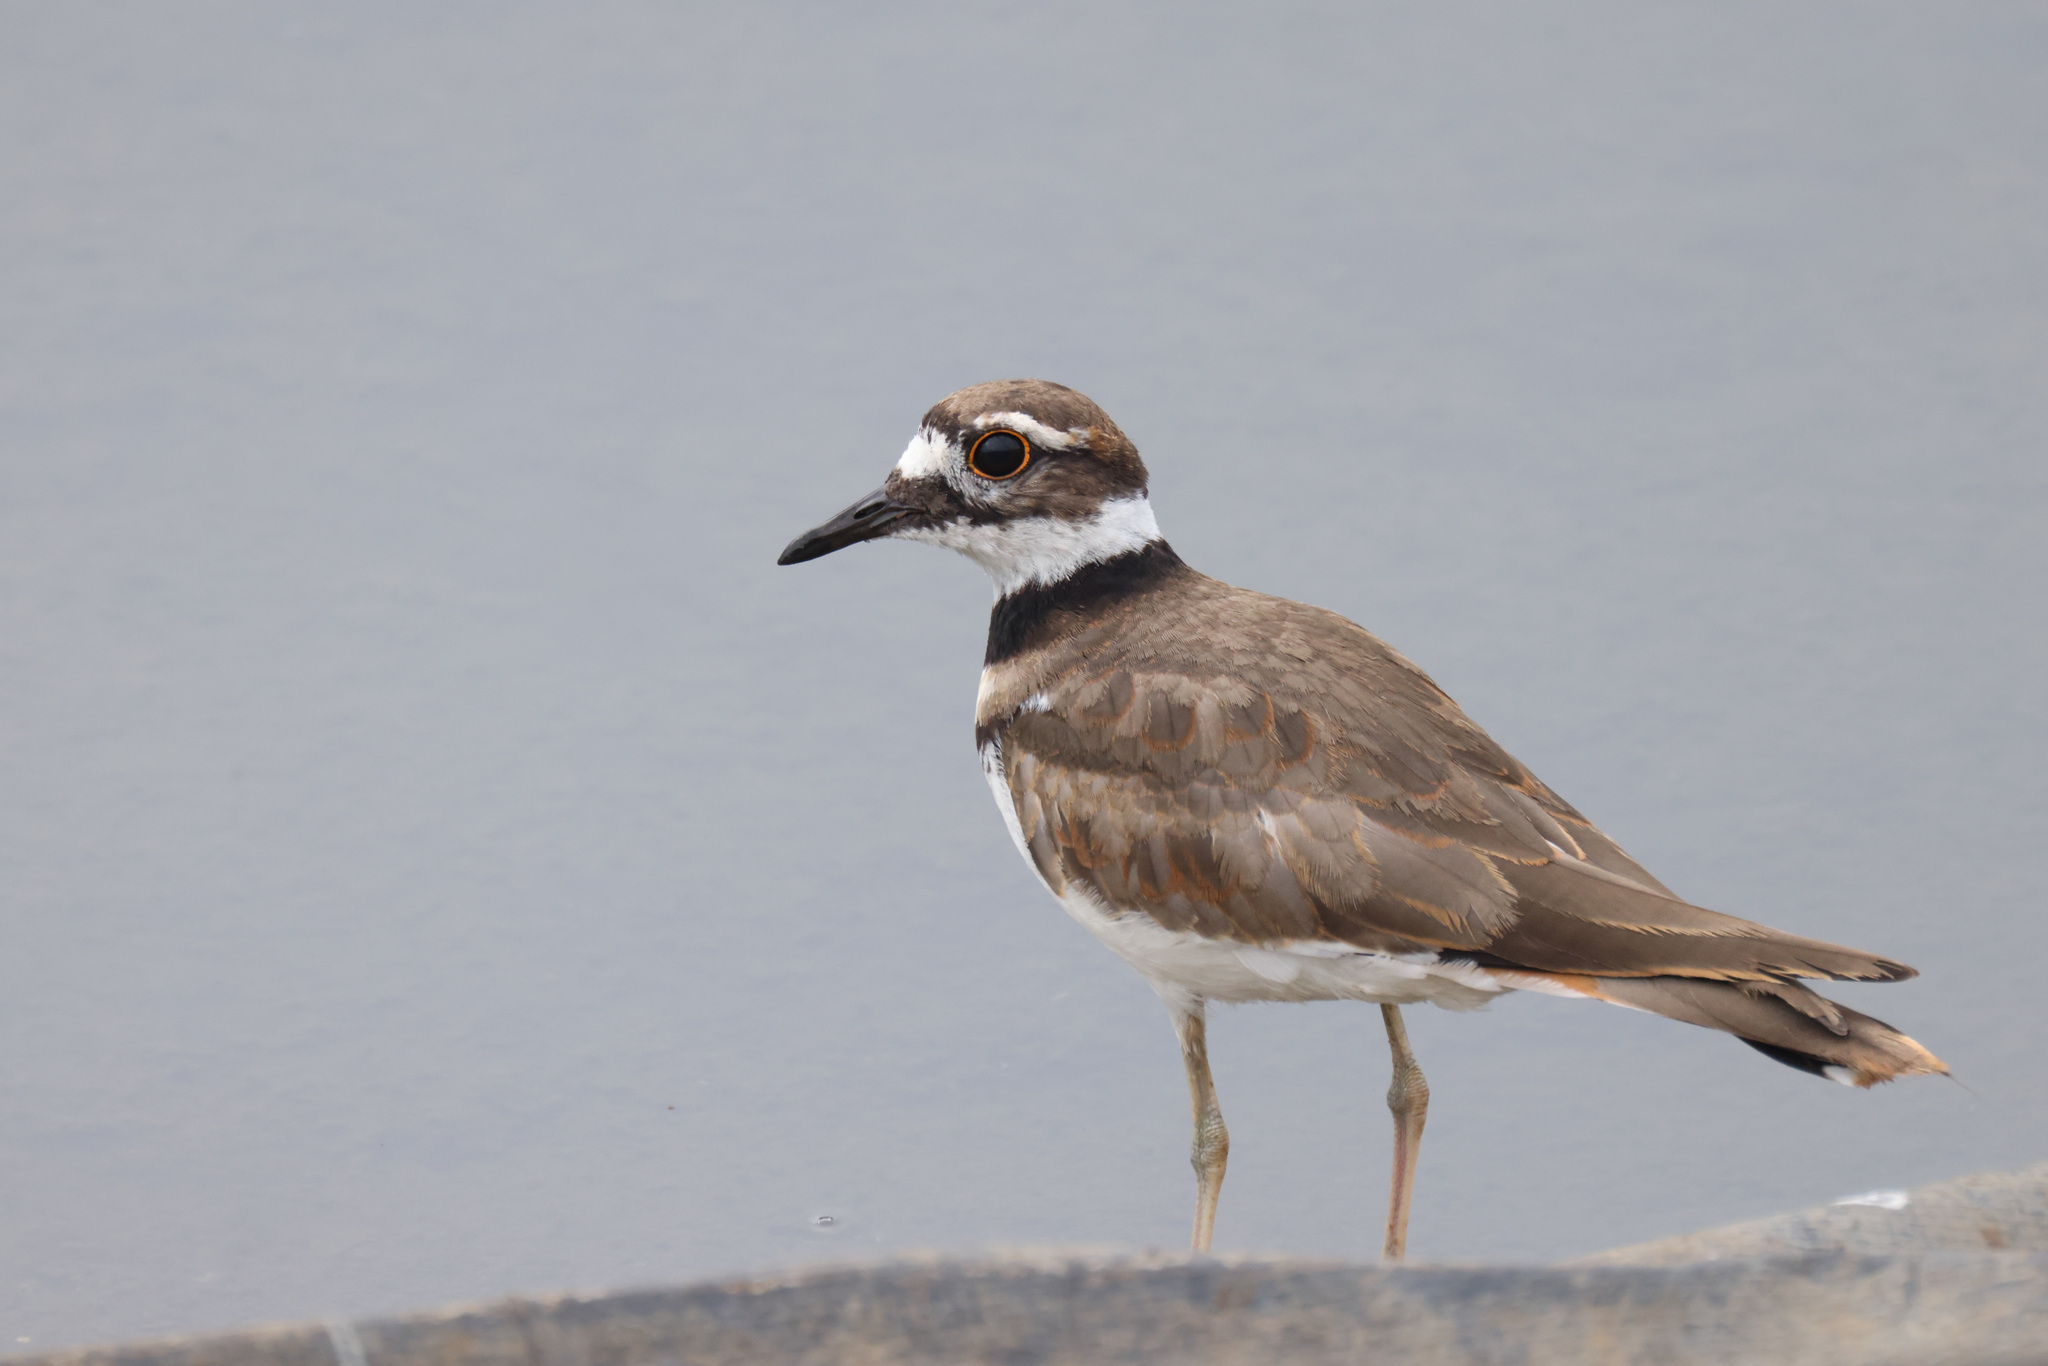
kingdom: Animalia
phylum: Chordata
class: Aves
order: Charadriiformes
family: Charadriidae
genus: Charadrius
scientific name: Charadrius vociferus
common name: Killdeer
